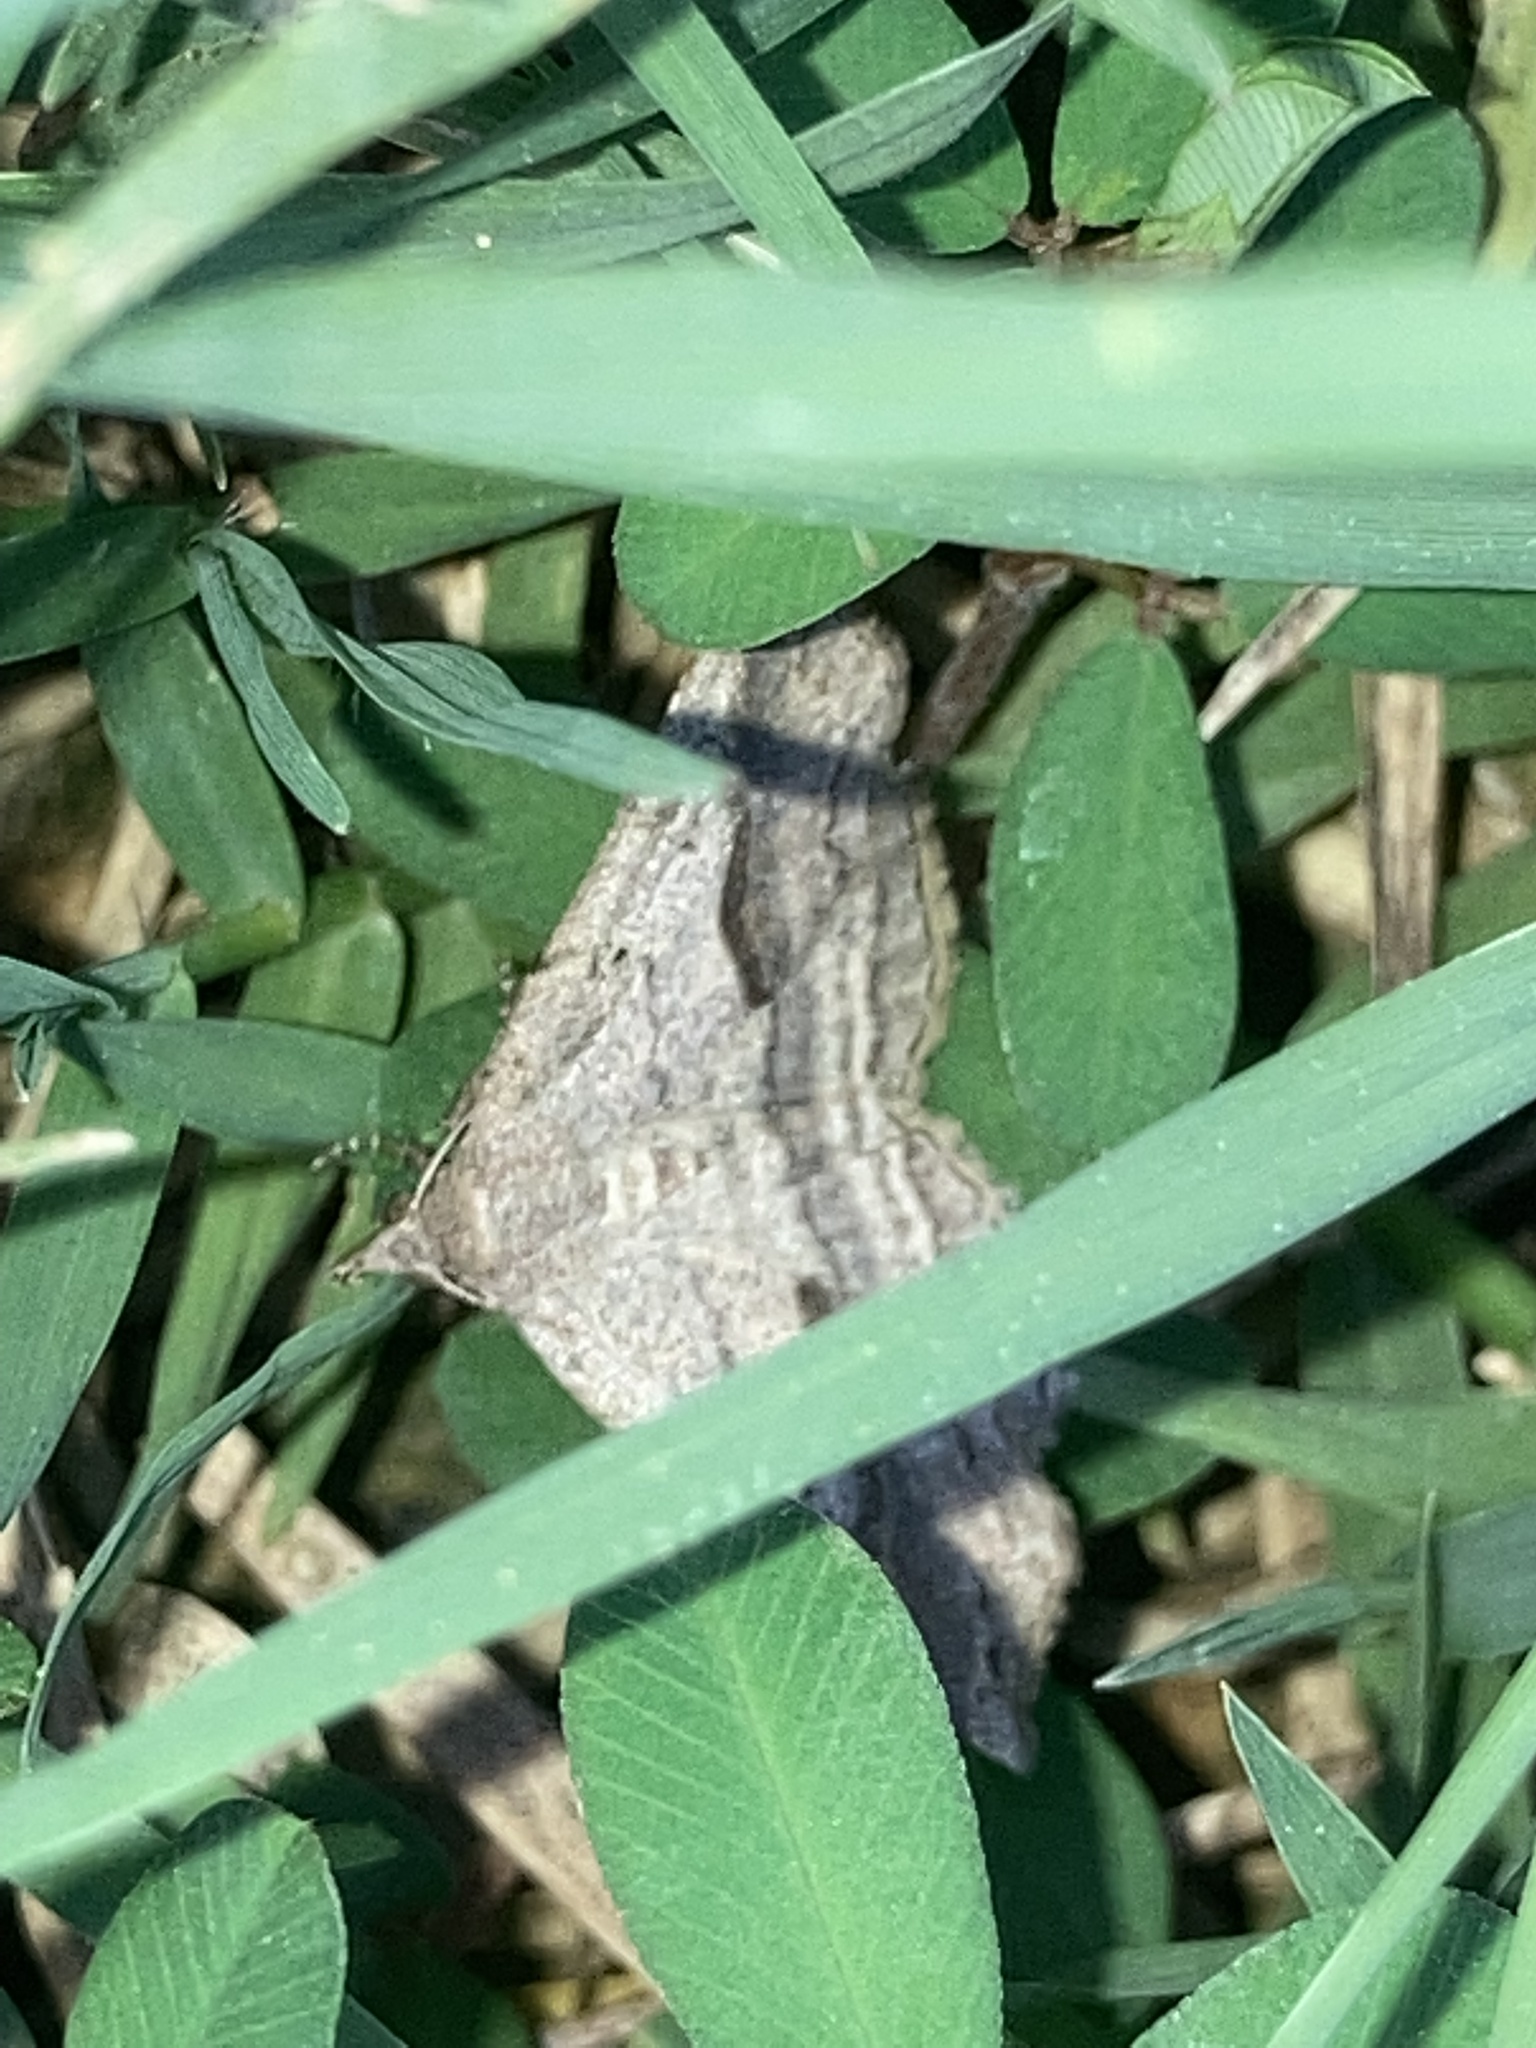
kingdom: Animalia
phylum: Arthropoda
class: Insecta
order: Lepidoptera
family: Erebidae
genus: Spargaloma
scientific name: Spargaloma perditalis
